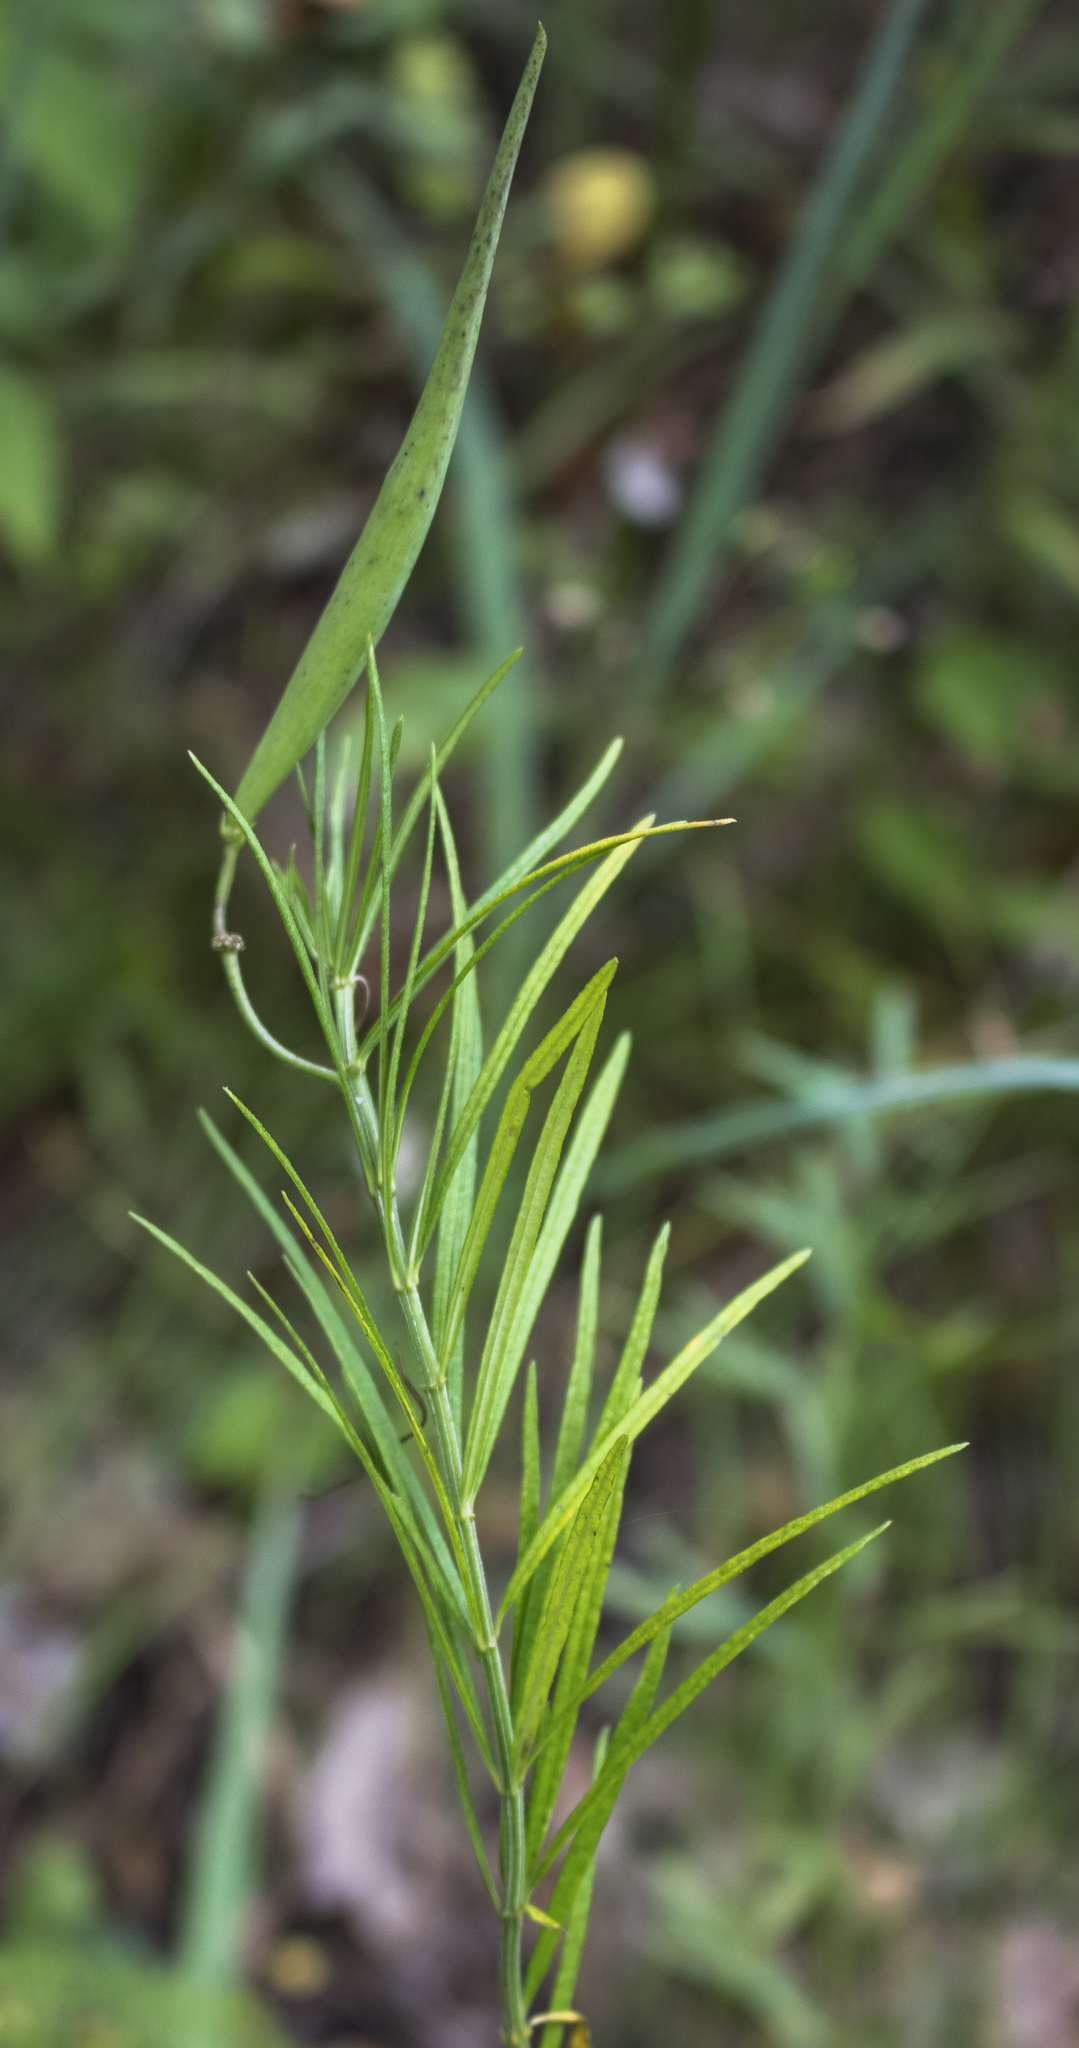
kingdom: Plantae
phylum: Tracheophyta
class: Magnoliopsida
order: Gentianales
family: Apocynaceae
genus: Asclepias
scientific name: Asclepias verticillata
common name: Eastern whorled milkweed
